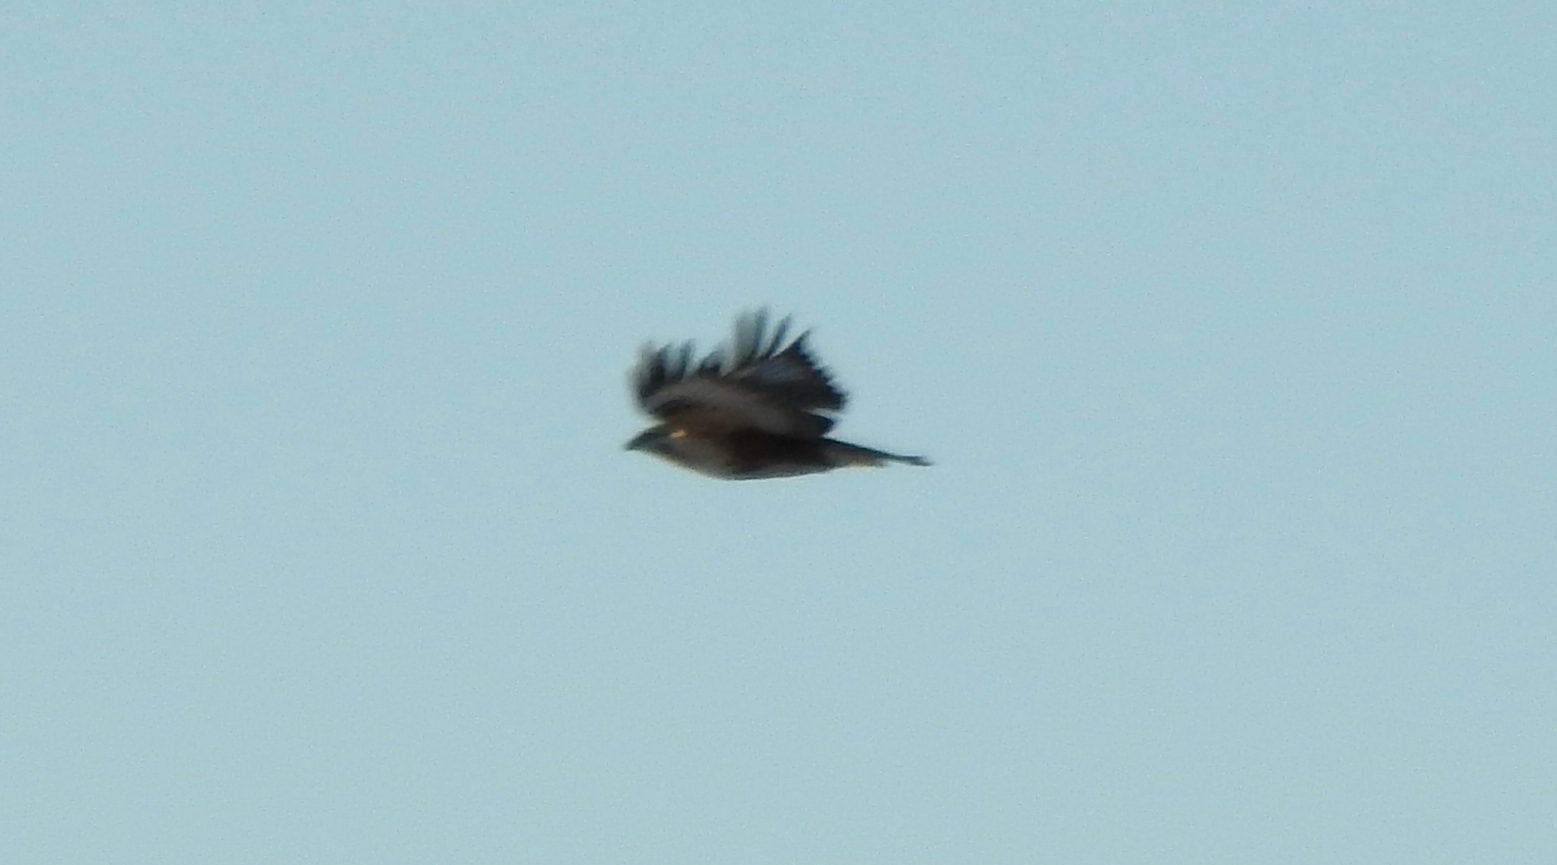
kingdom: Animalia
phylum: Chordata
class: Aves
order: Accipitriformes
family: Accipitridae
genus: Buteo
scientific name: Buteo hemilasius
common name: Upland buzzard
